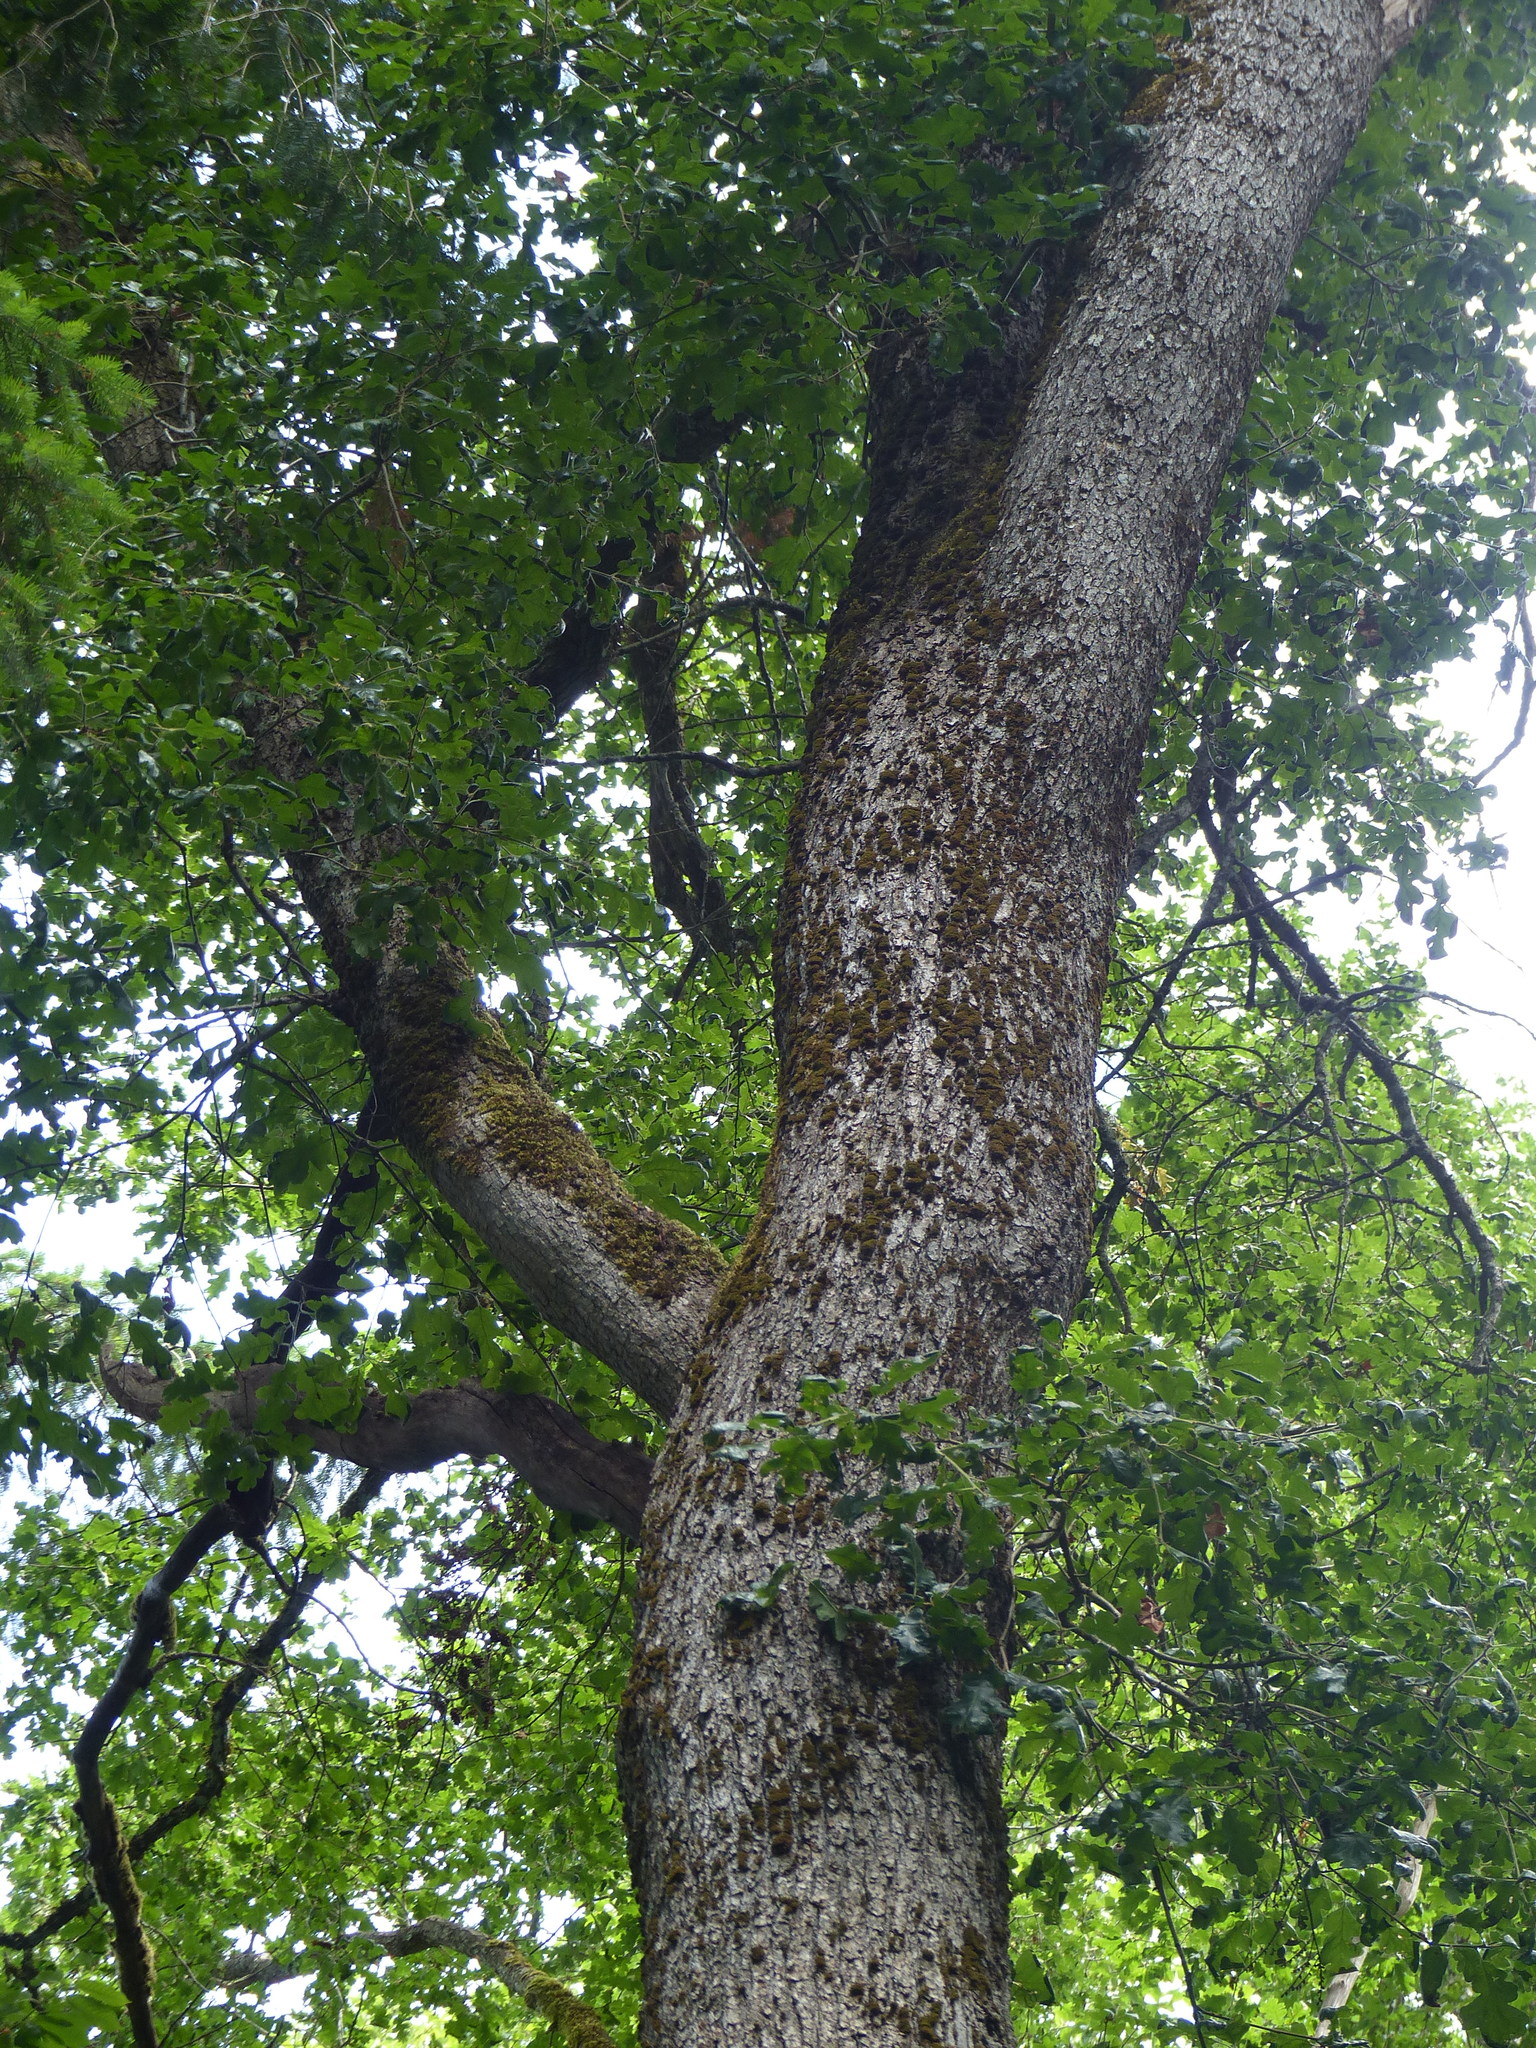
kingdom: Plantae
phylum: Tracheophyta
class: Magnoliopsida
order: Fagales
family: Fagaceae
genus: Quercus
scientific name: Quercus garryana
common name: Garry oak
